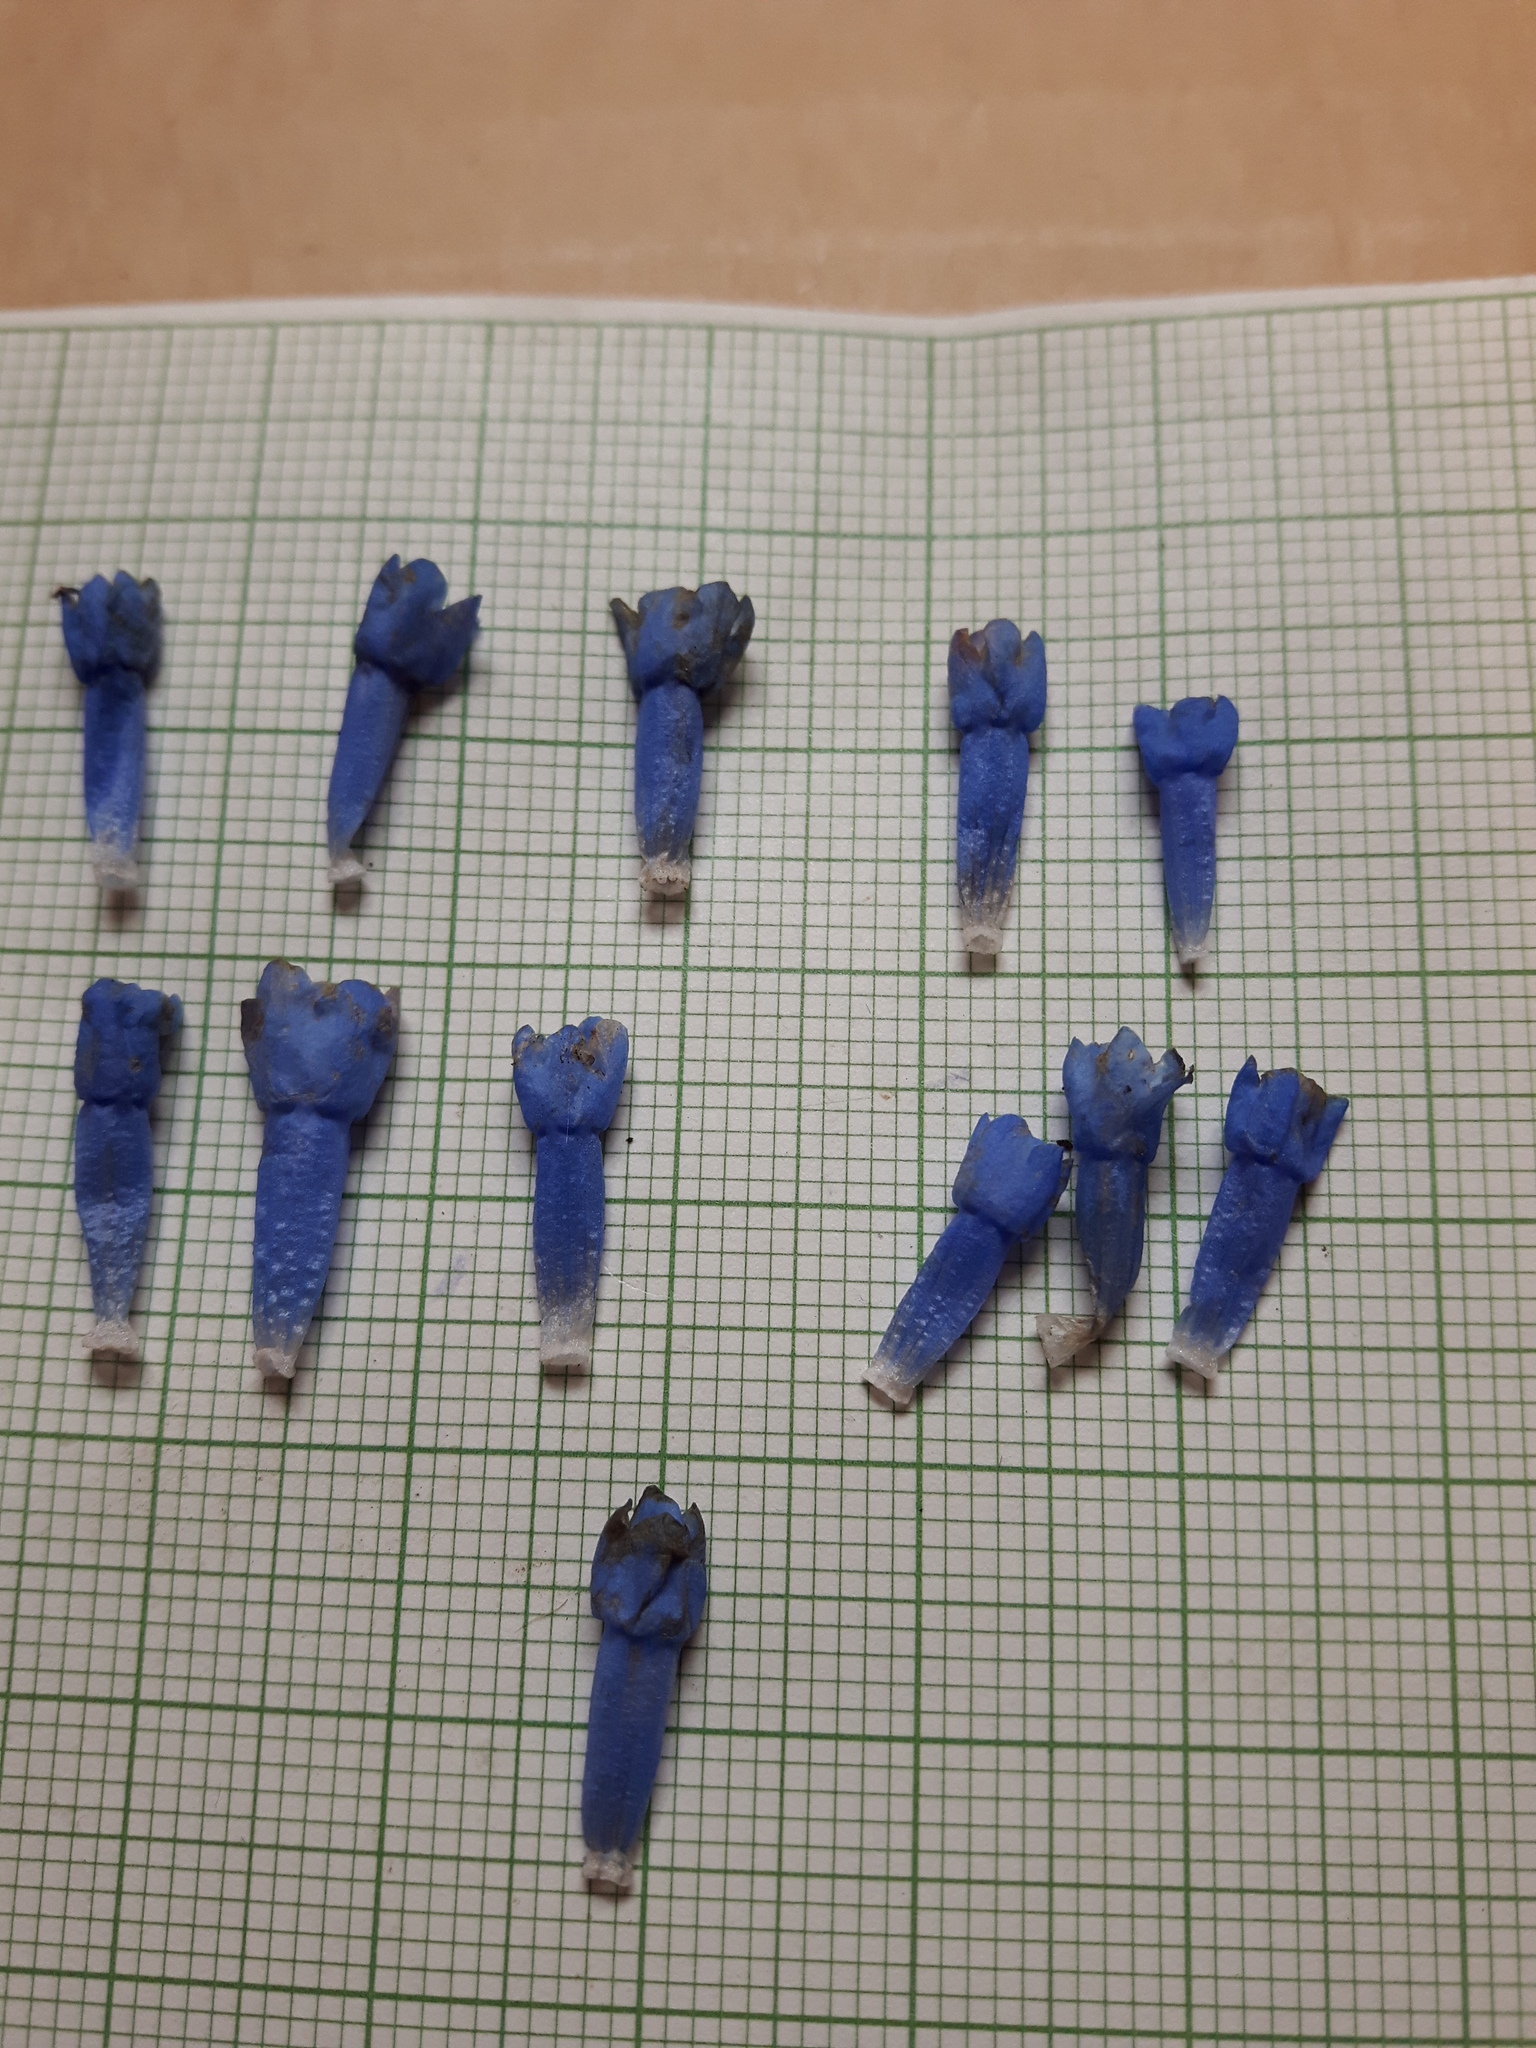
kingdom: Plantae
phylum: Tracheophyta
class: Magnoliopsida
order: Boraginales
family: Boraginaceae
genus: Mertensia
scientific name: Mertensia longiflora
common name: Large-flowered bluebells
